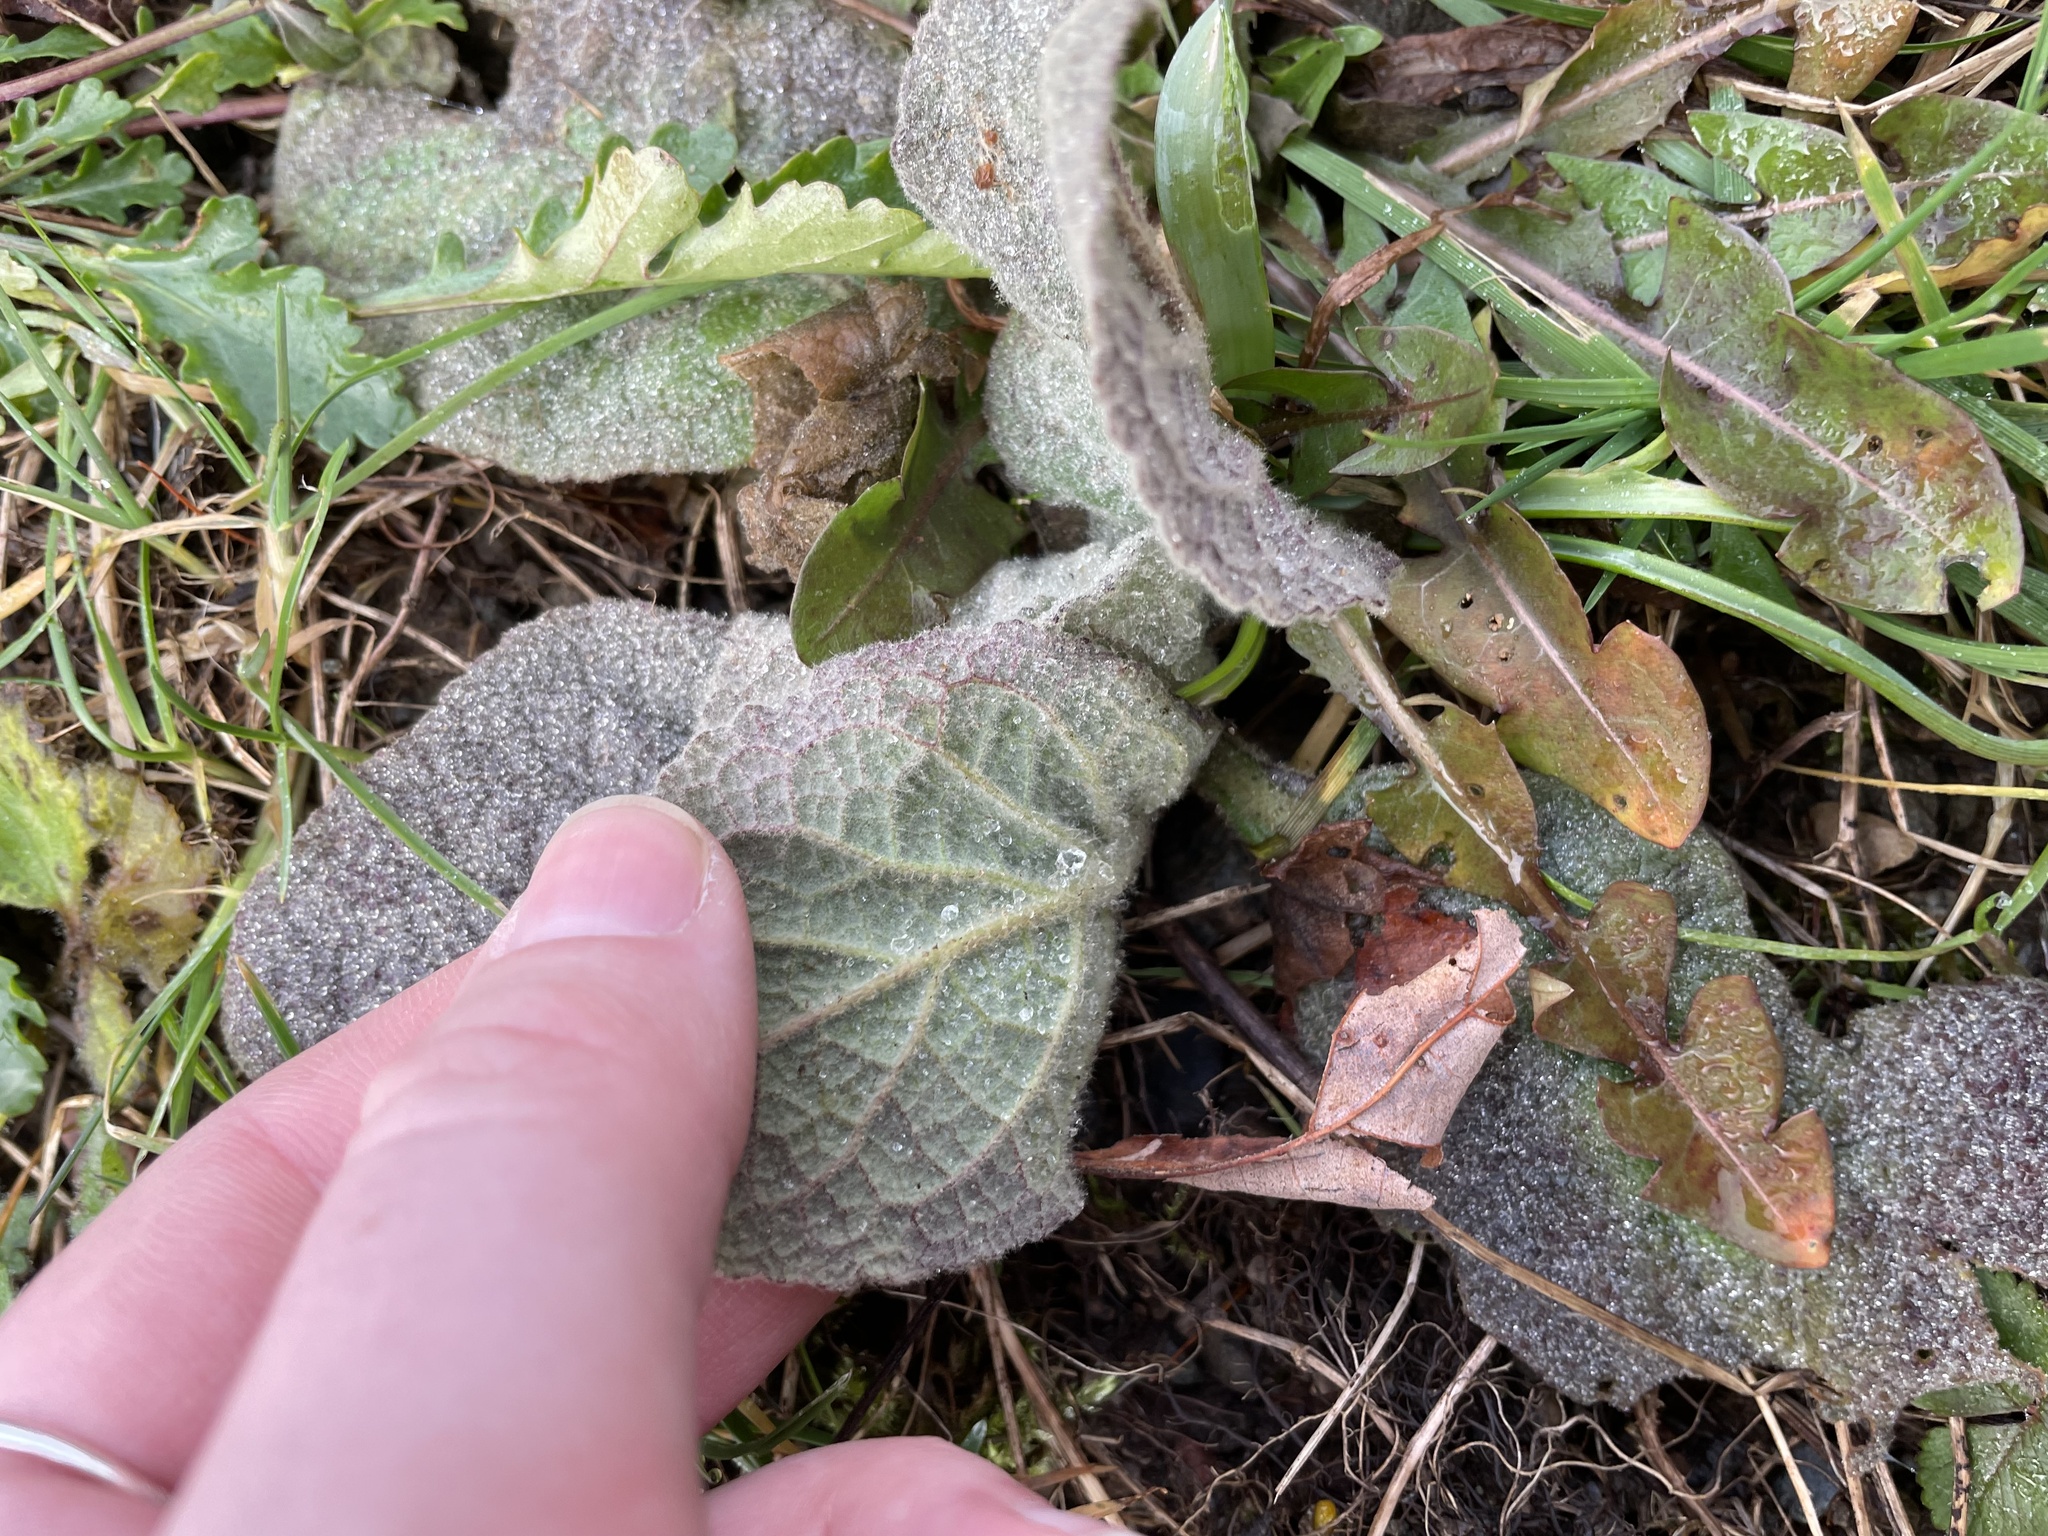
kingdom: Plantae
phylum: Tracheophyta
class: Magnoliopsida
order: Lamiales
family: Scrophulariaceae
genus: Verbascum
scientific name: Verbascum thapsus
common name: Common mullein
